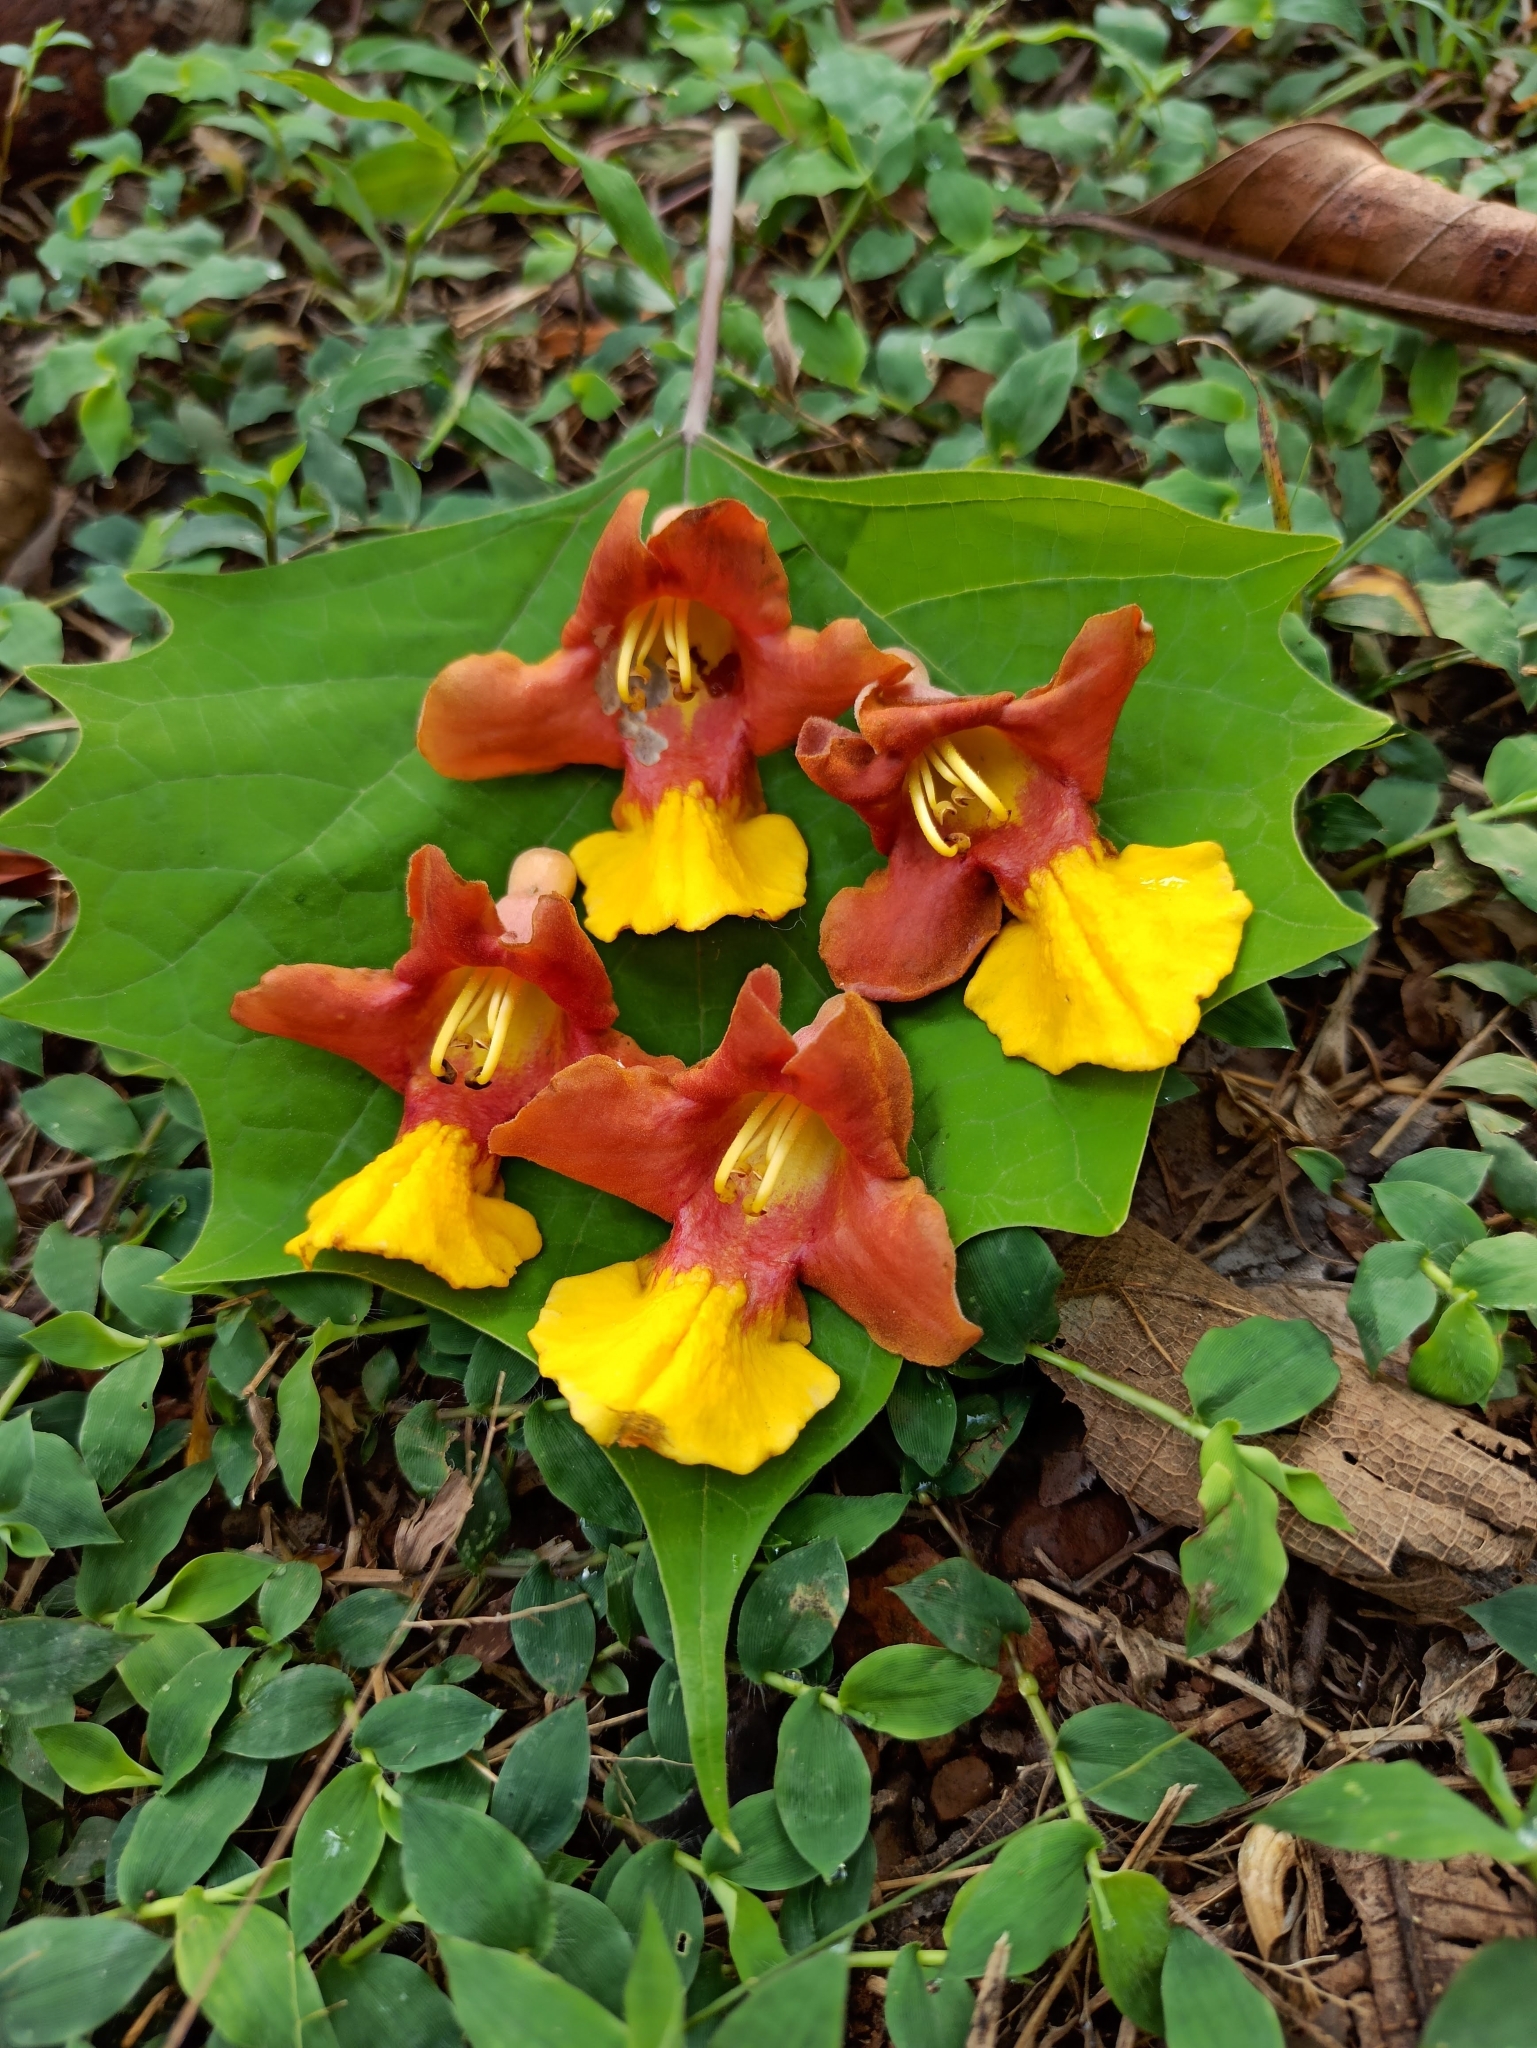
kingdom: Plantae
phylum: Tracheophyta
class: Magnoliopsida
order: Lamiales
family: Lamiaceae
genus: Gmelina
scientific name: Gmelina arborea
